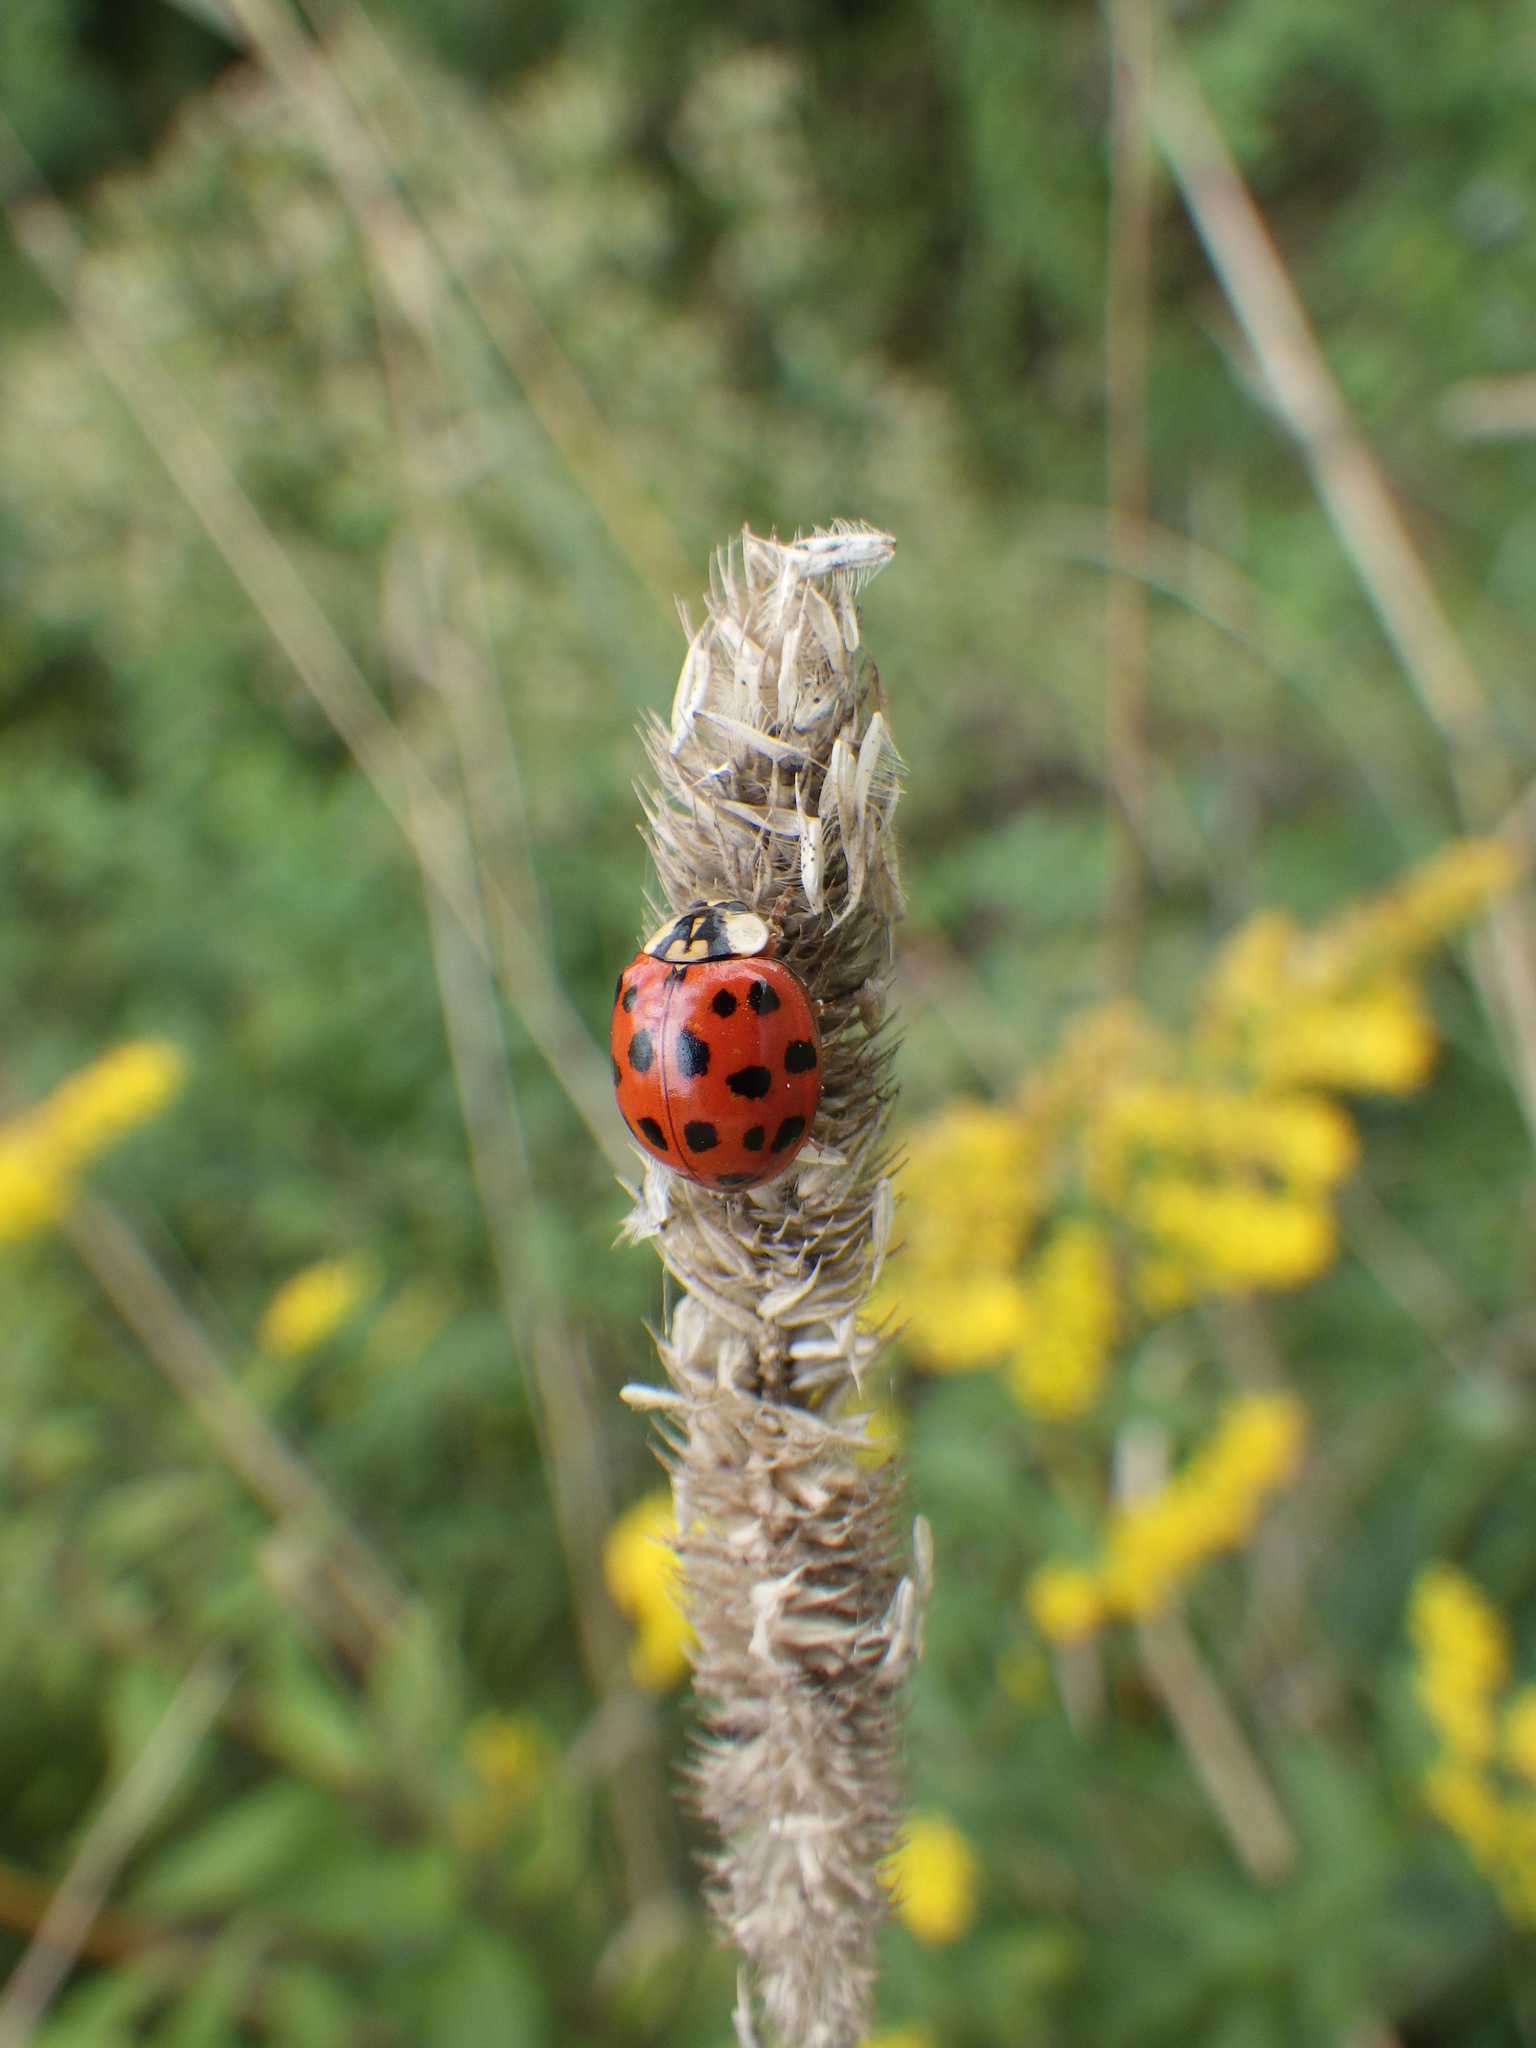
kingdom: Animalia
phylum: Arthropoda
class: Insecta
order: Coleoptera
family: Coccinellidae
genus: Harmonia
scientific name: Harmonia axyridis
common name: Harlequin ladybird
